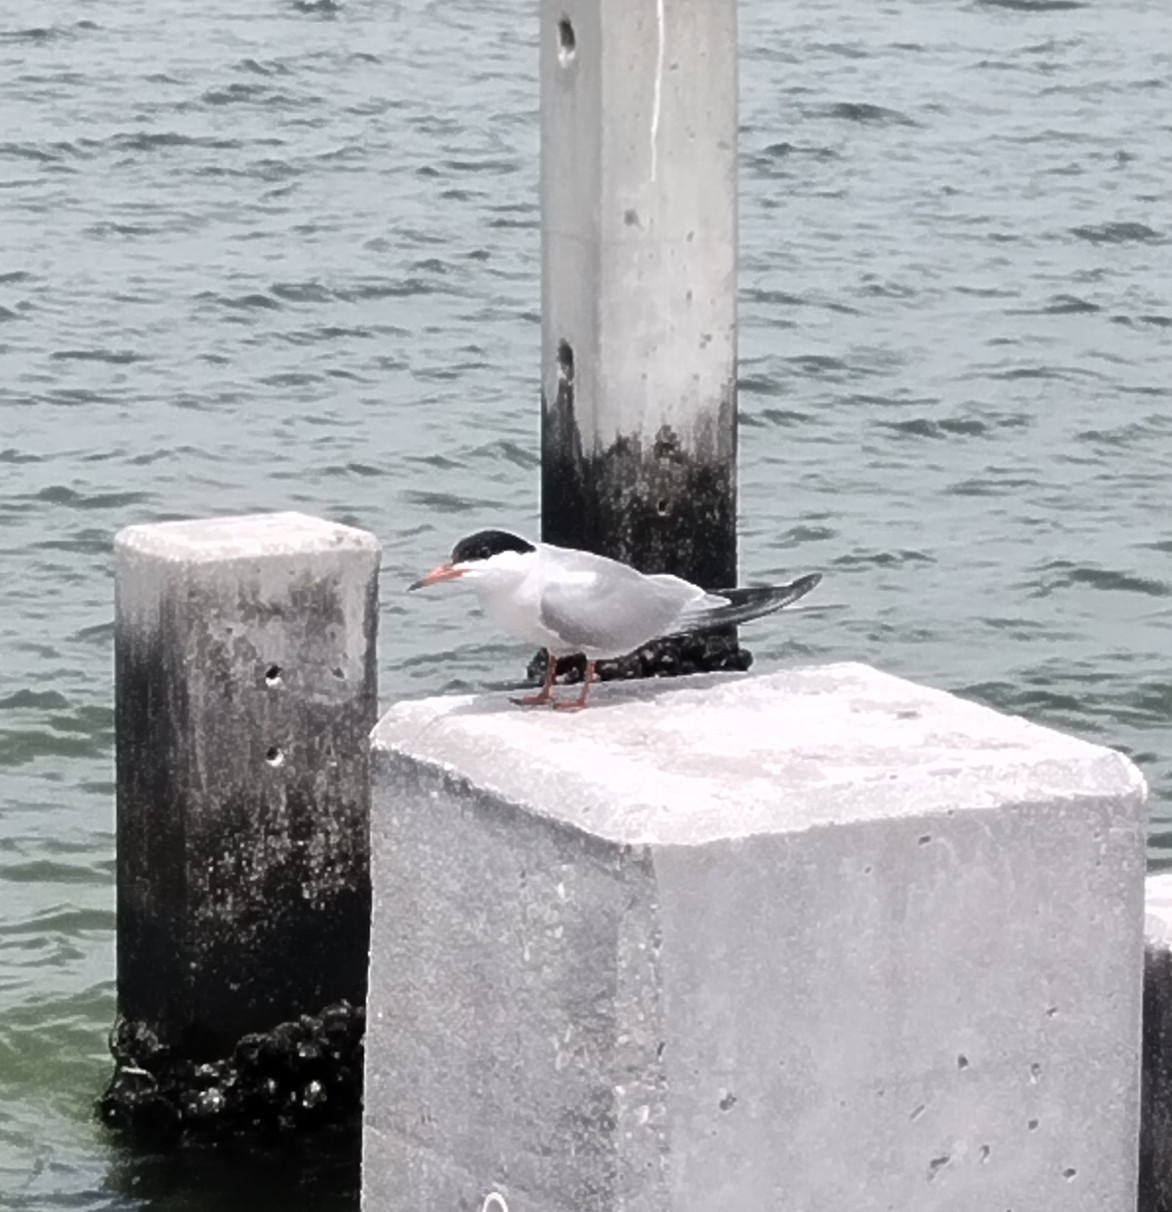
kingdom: Animalia
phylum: Chordata
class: Aves
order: Charadriiformes
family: Laridae
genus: Sterna
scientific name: Sterna hirundo
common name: Common tern
